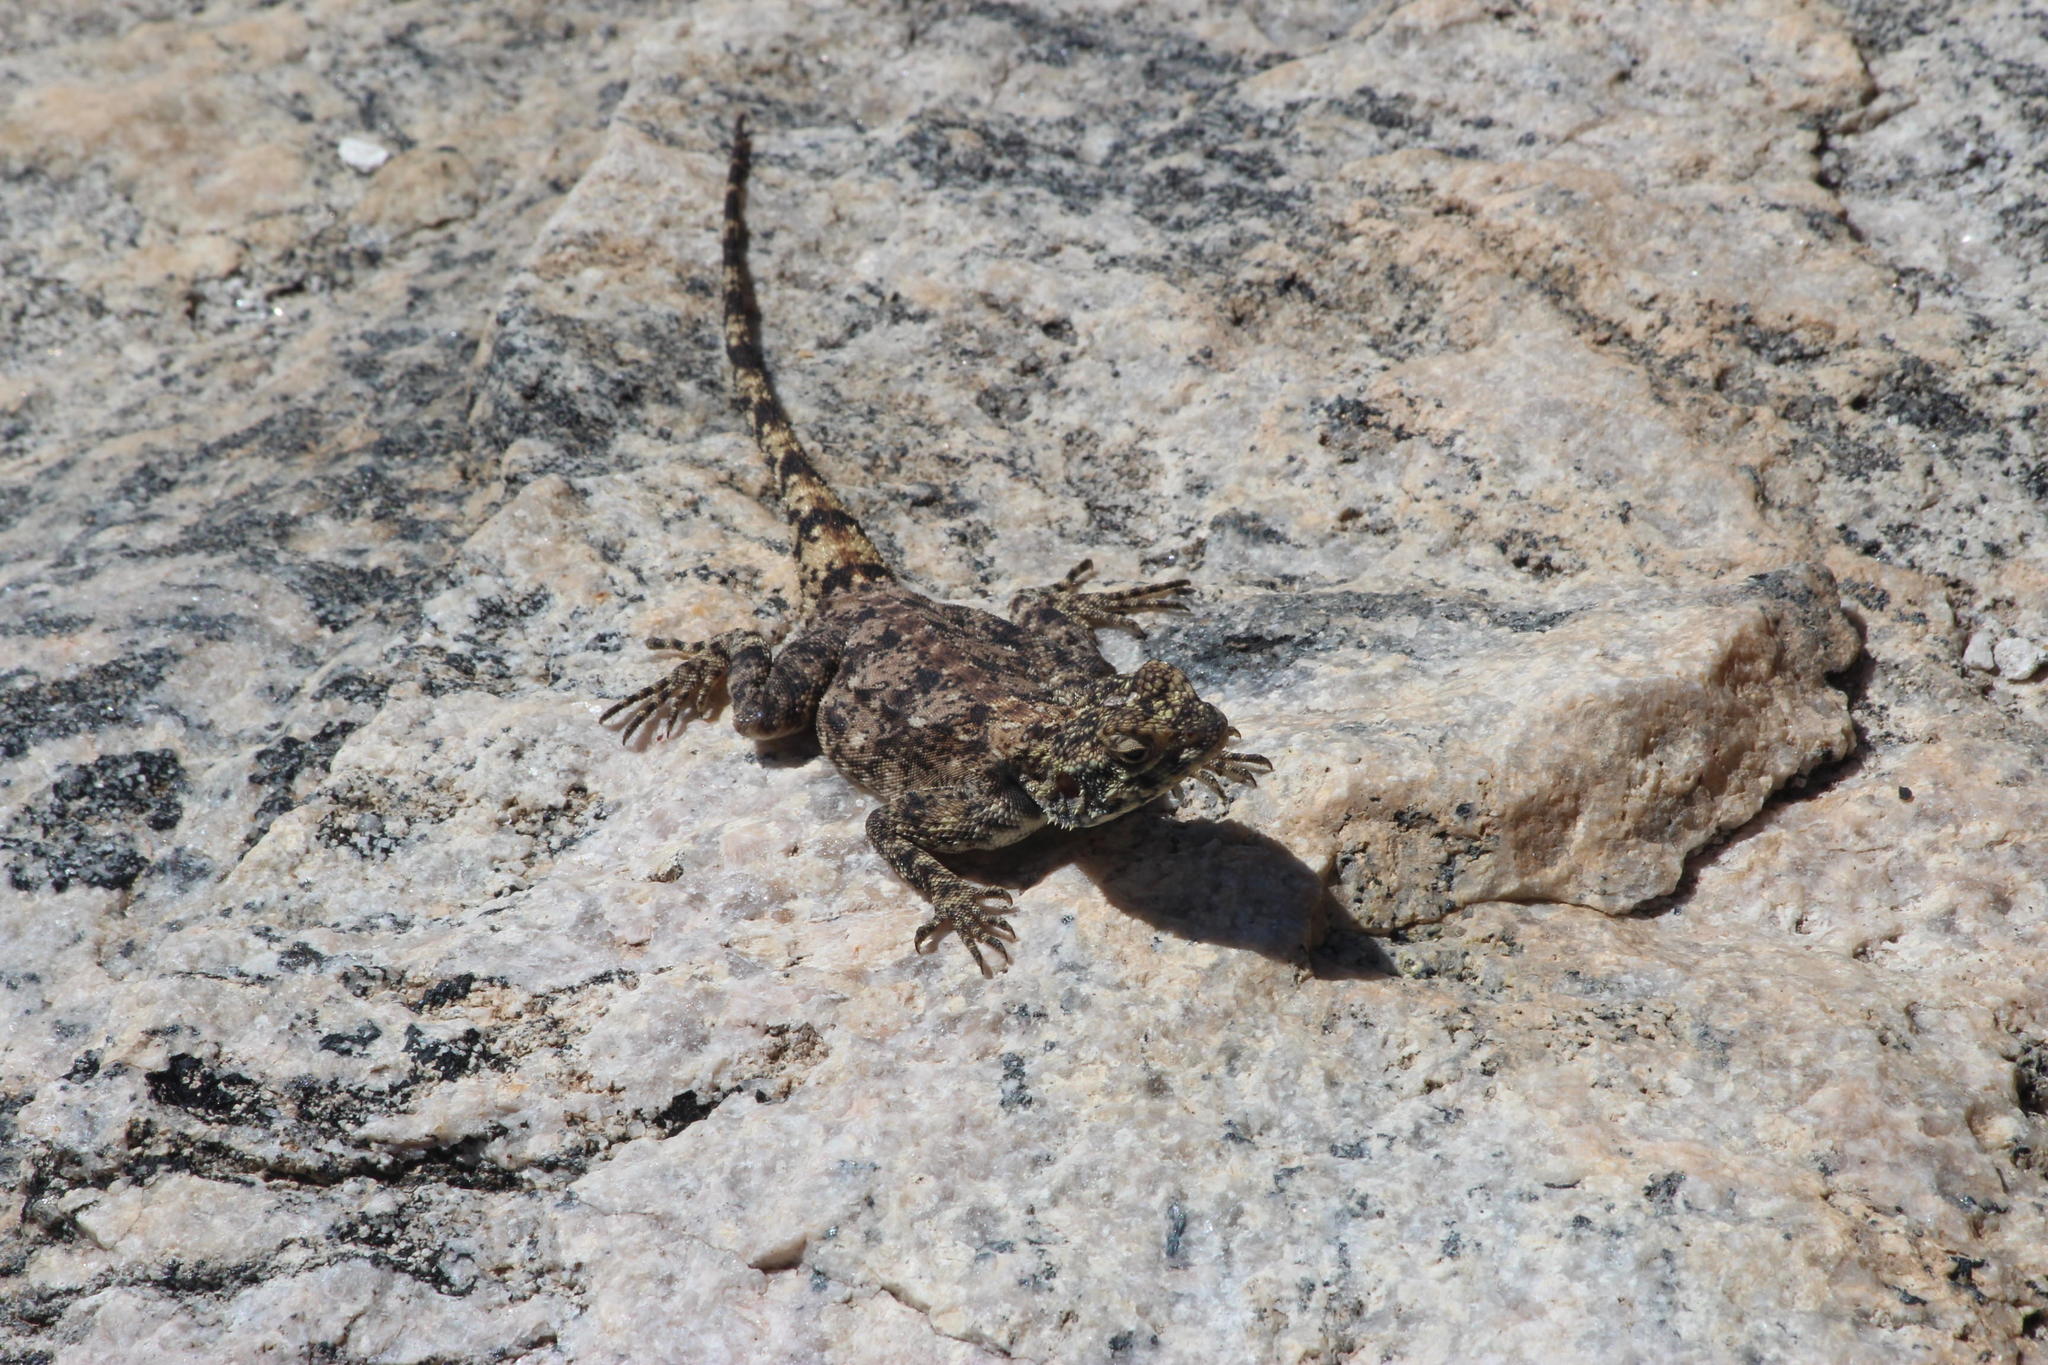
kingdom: Animalia
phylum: Chordata
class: Squamata
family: Agamidae
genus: Agama
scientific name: Agama atra
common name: Southern african rock agama
